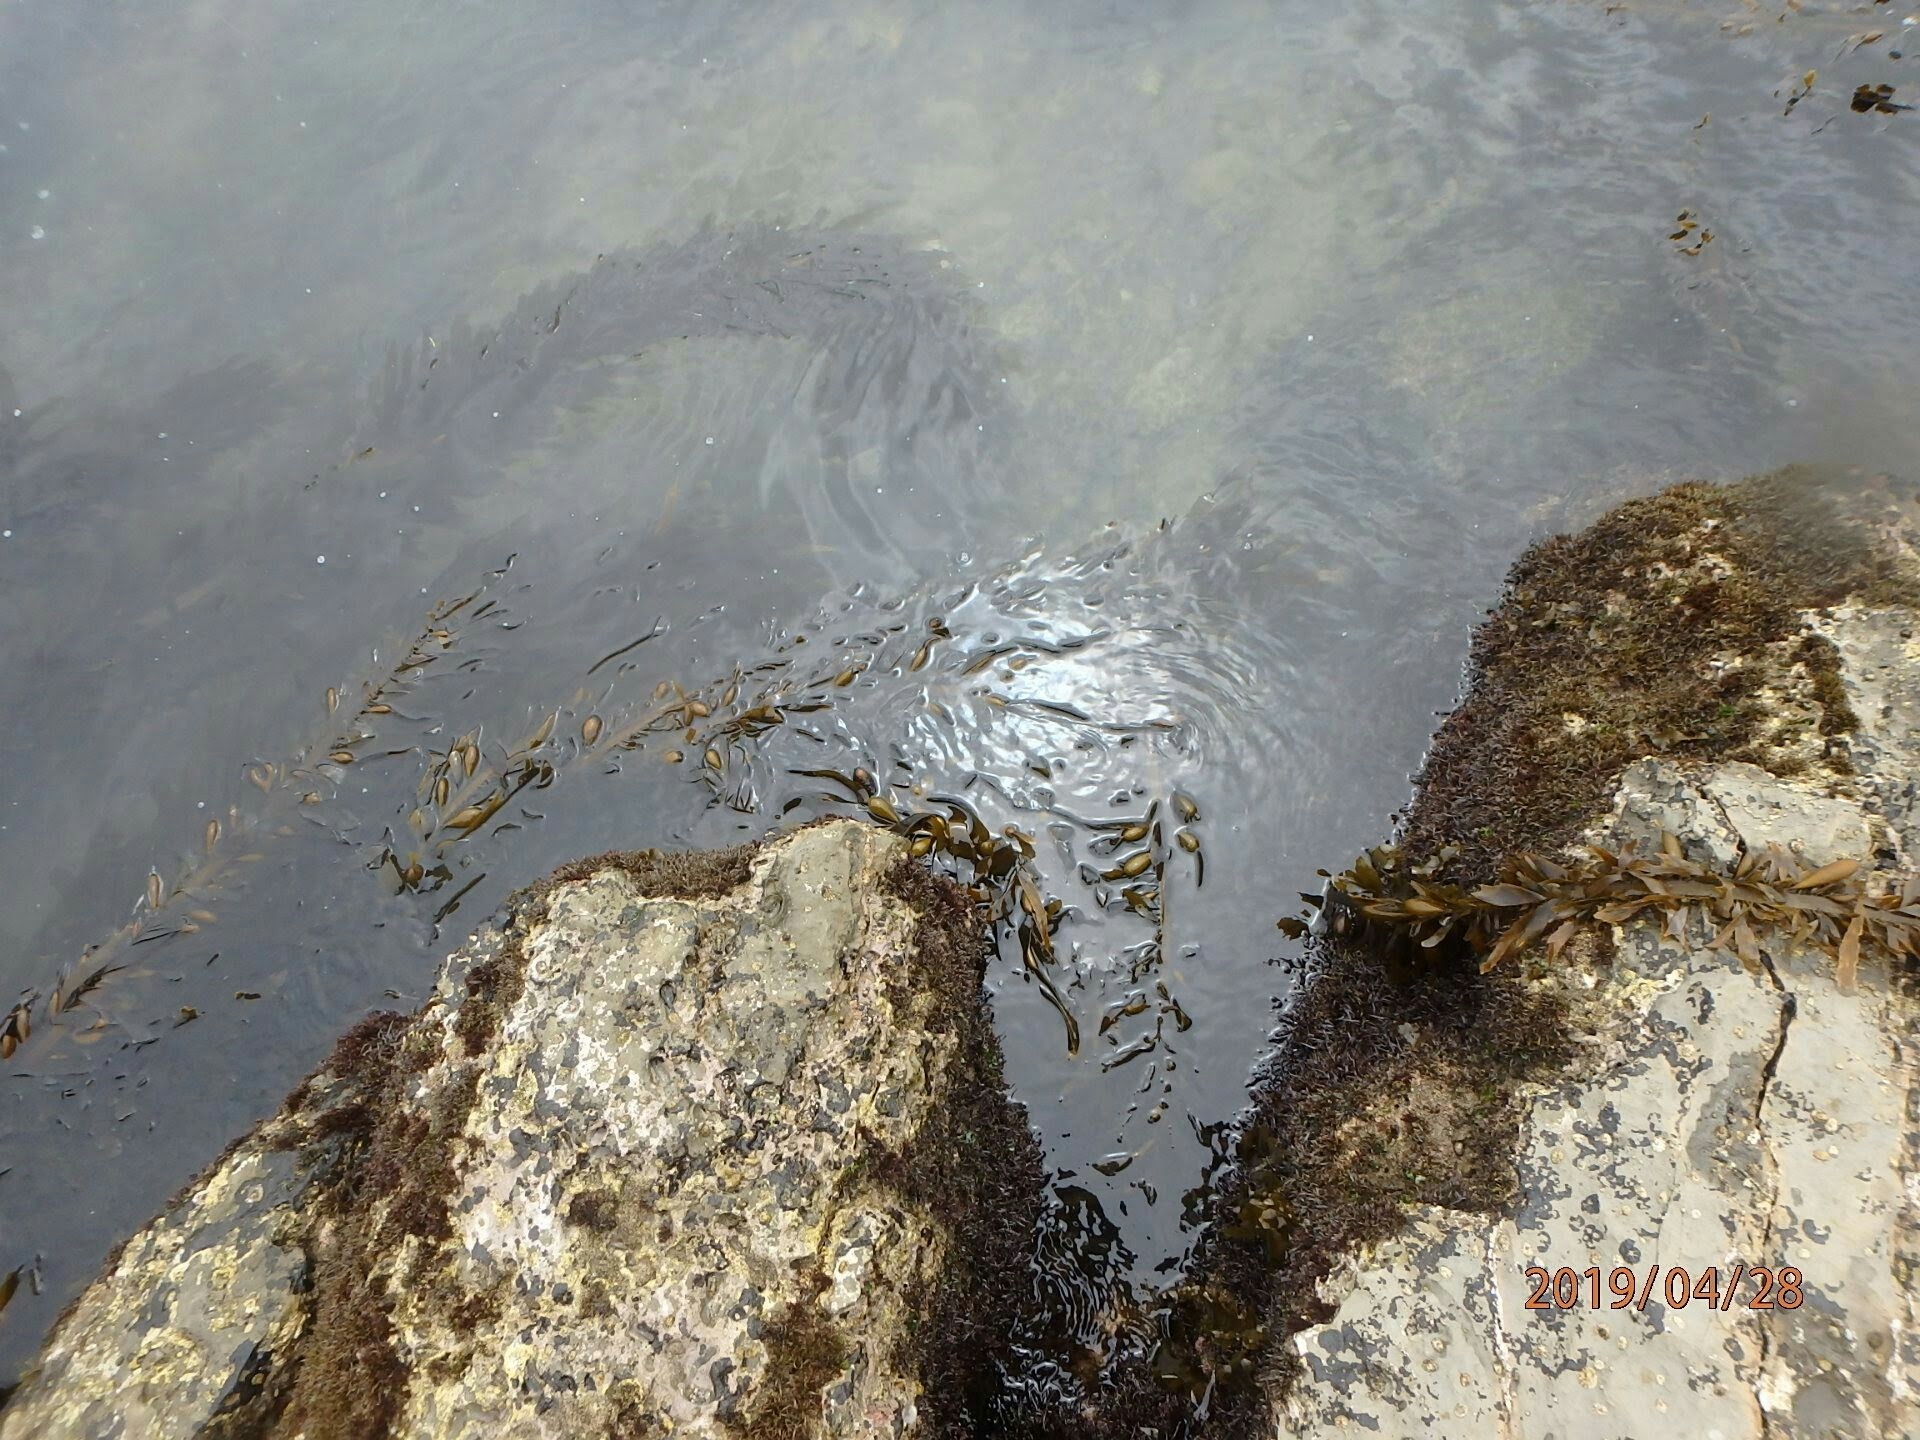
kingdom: Chromista
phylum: Ochrophyta
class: Phaeophyceae
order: Laminariales
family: Lessoniaceae
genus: Egregia
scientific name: Egregia menziesii
